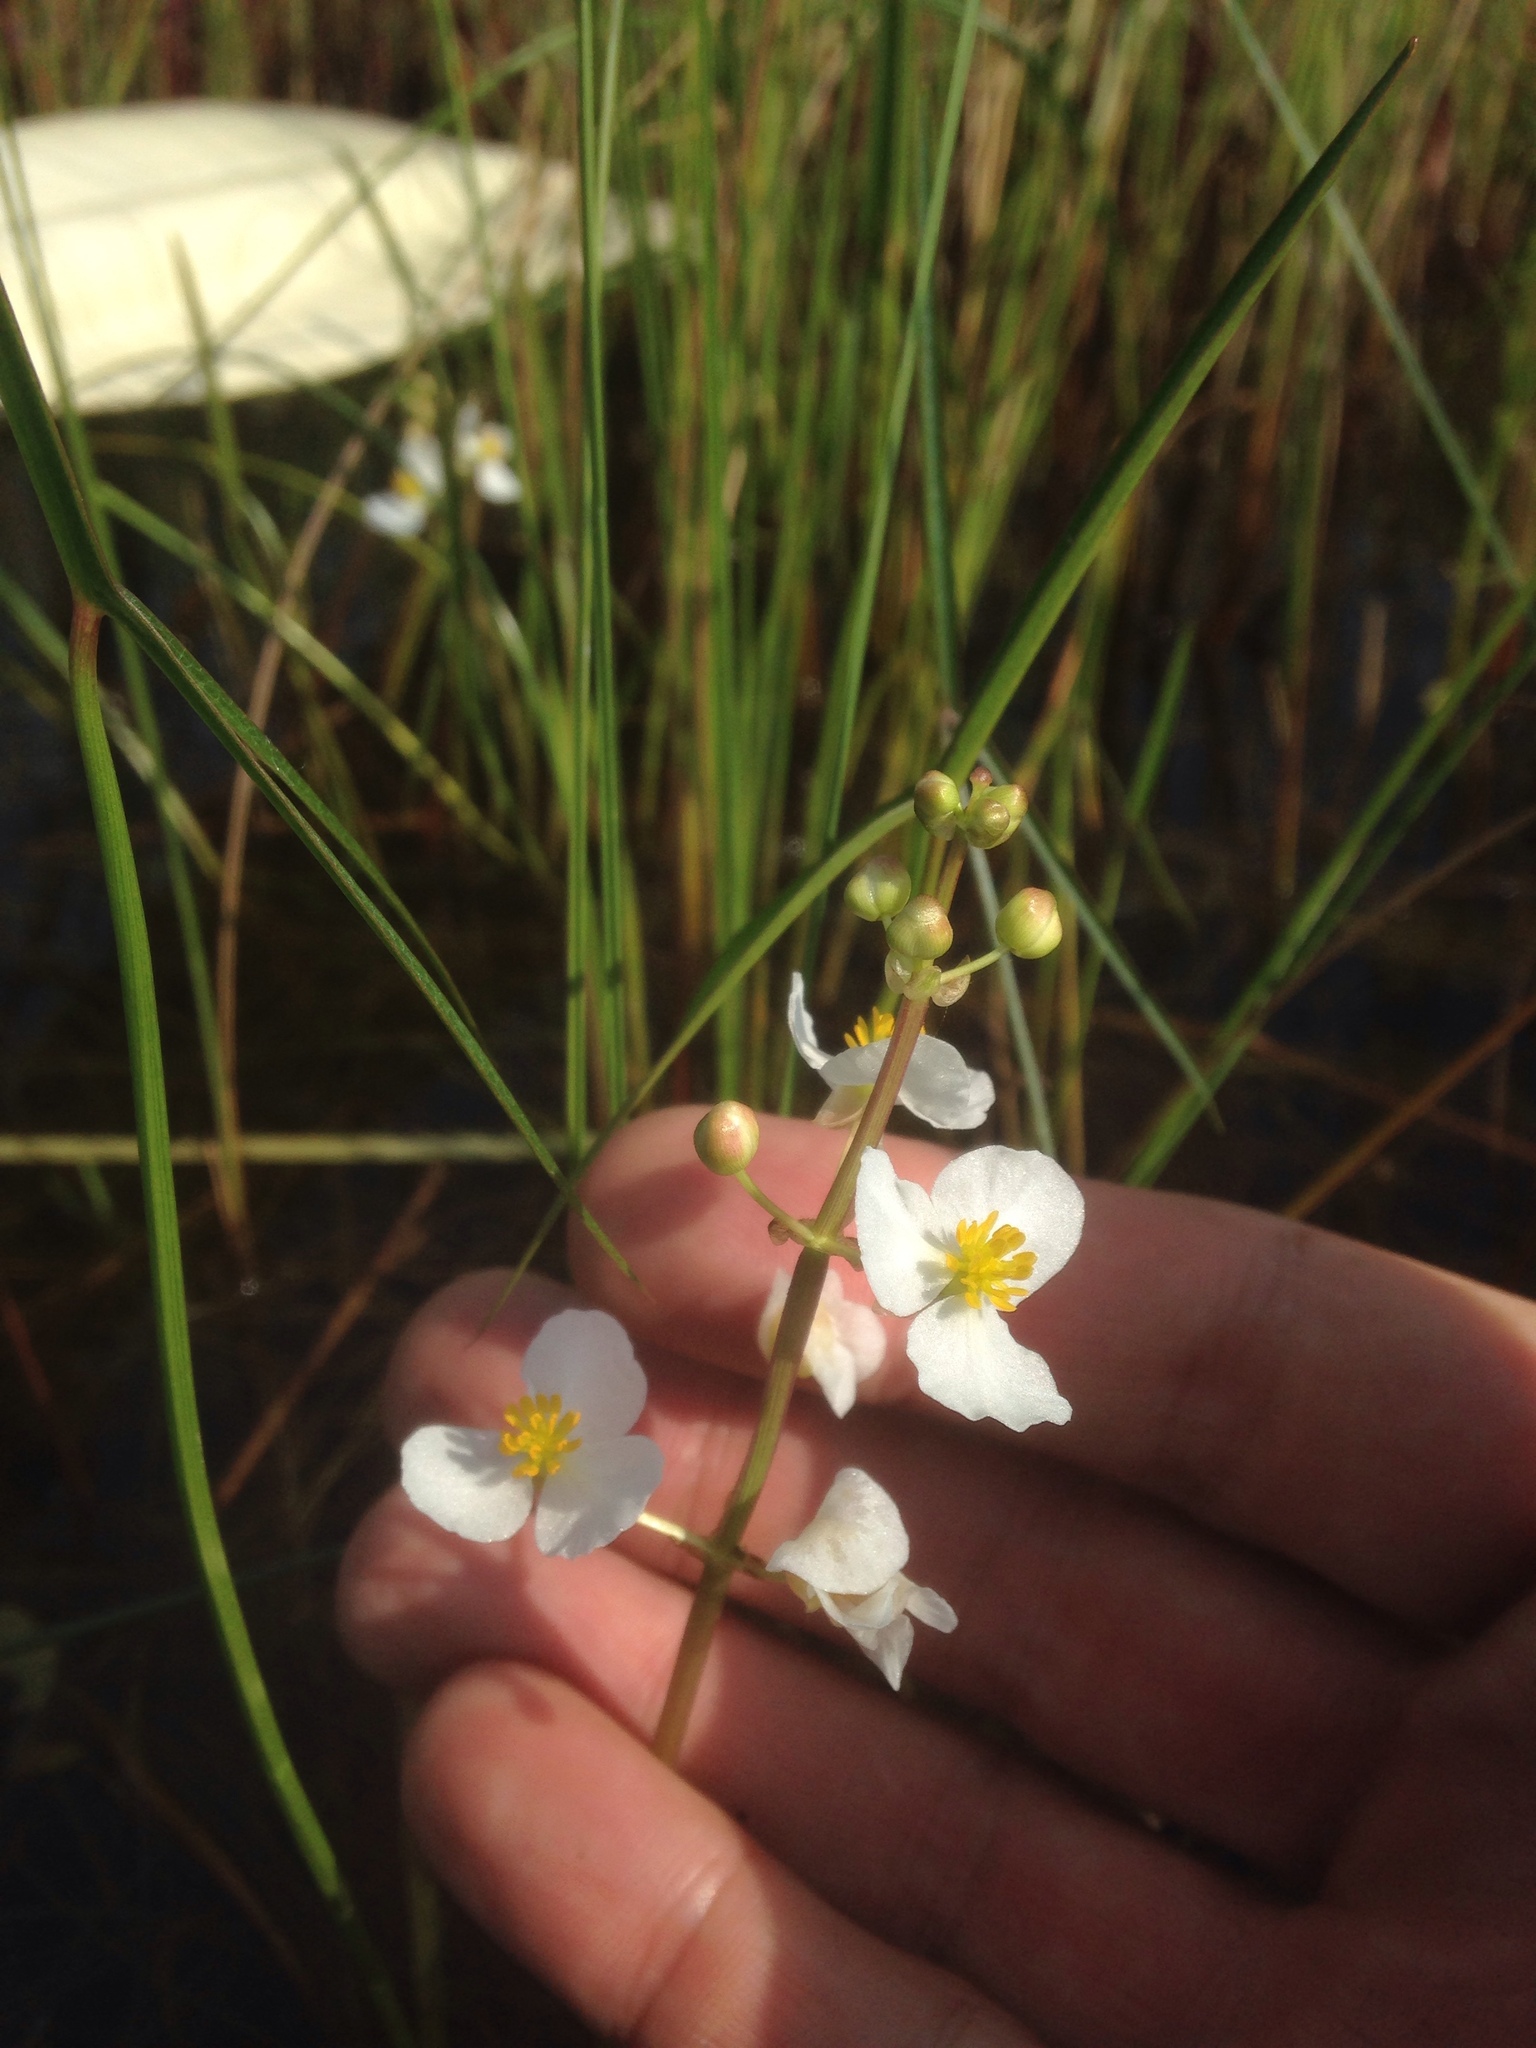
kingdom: Plantae
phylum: Tracheophyta
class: Liliopsida
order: Alismatales
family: Alismataceae
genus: Sagittaria
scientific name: Sagittaria latifolia
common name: Duck-potato
